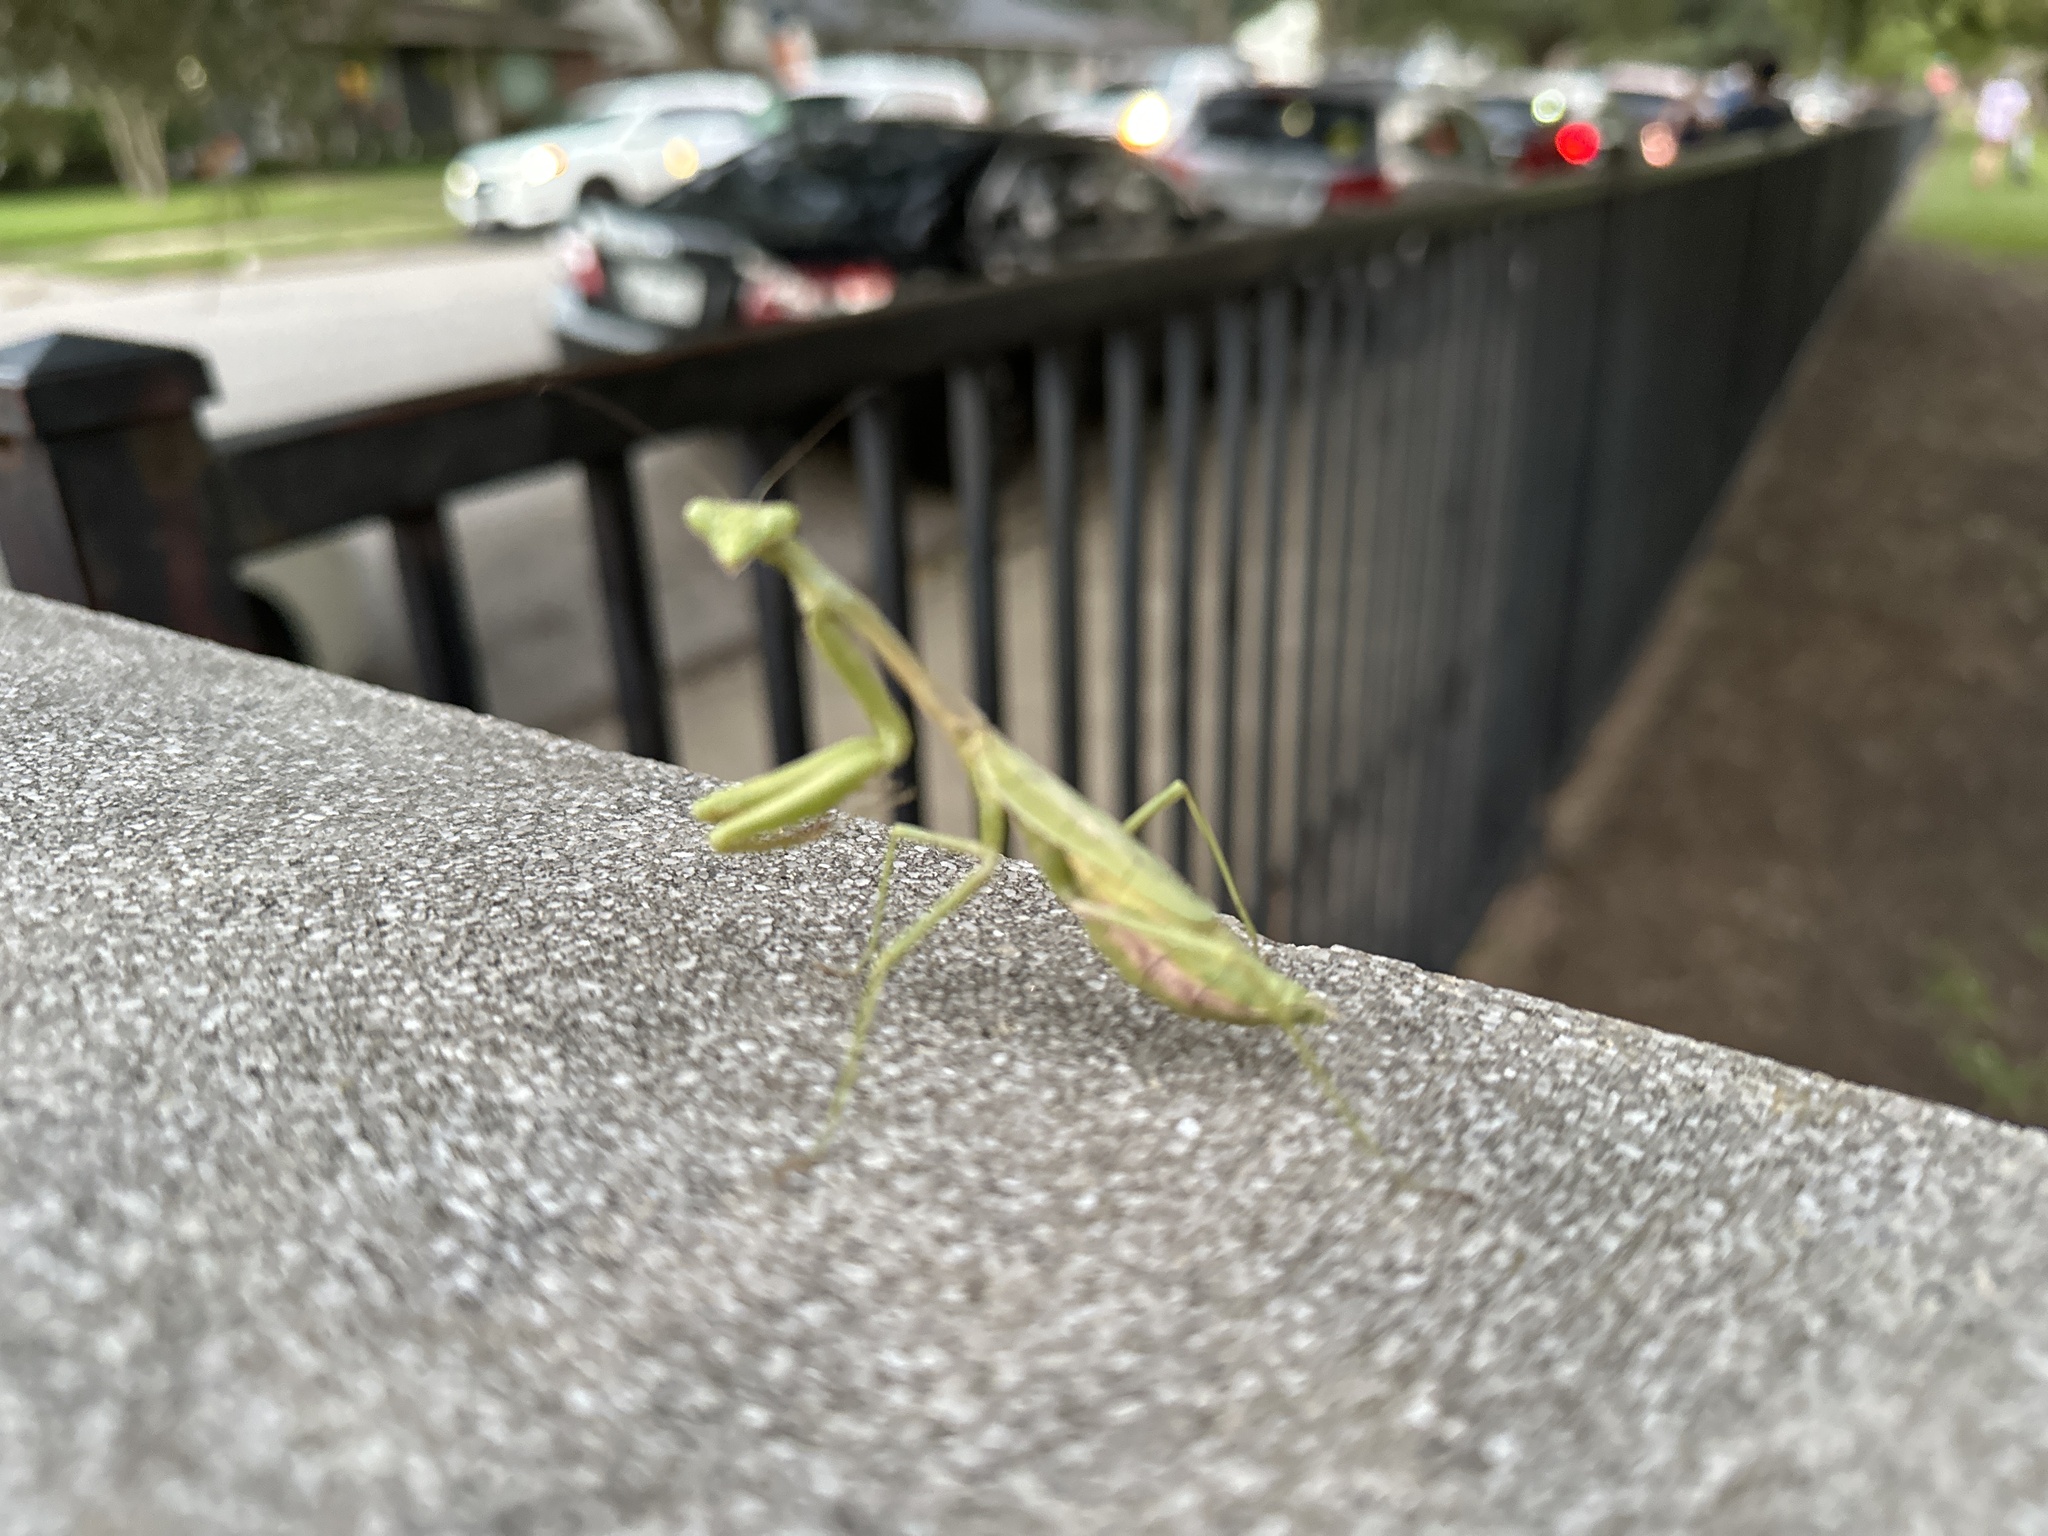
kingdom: Animalia
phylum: Arthropoda
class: Insecta
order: Mantodea
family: Mantidae
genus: Stagmomantis
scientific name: Stagmomantis carolina
